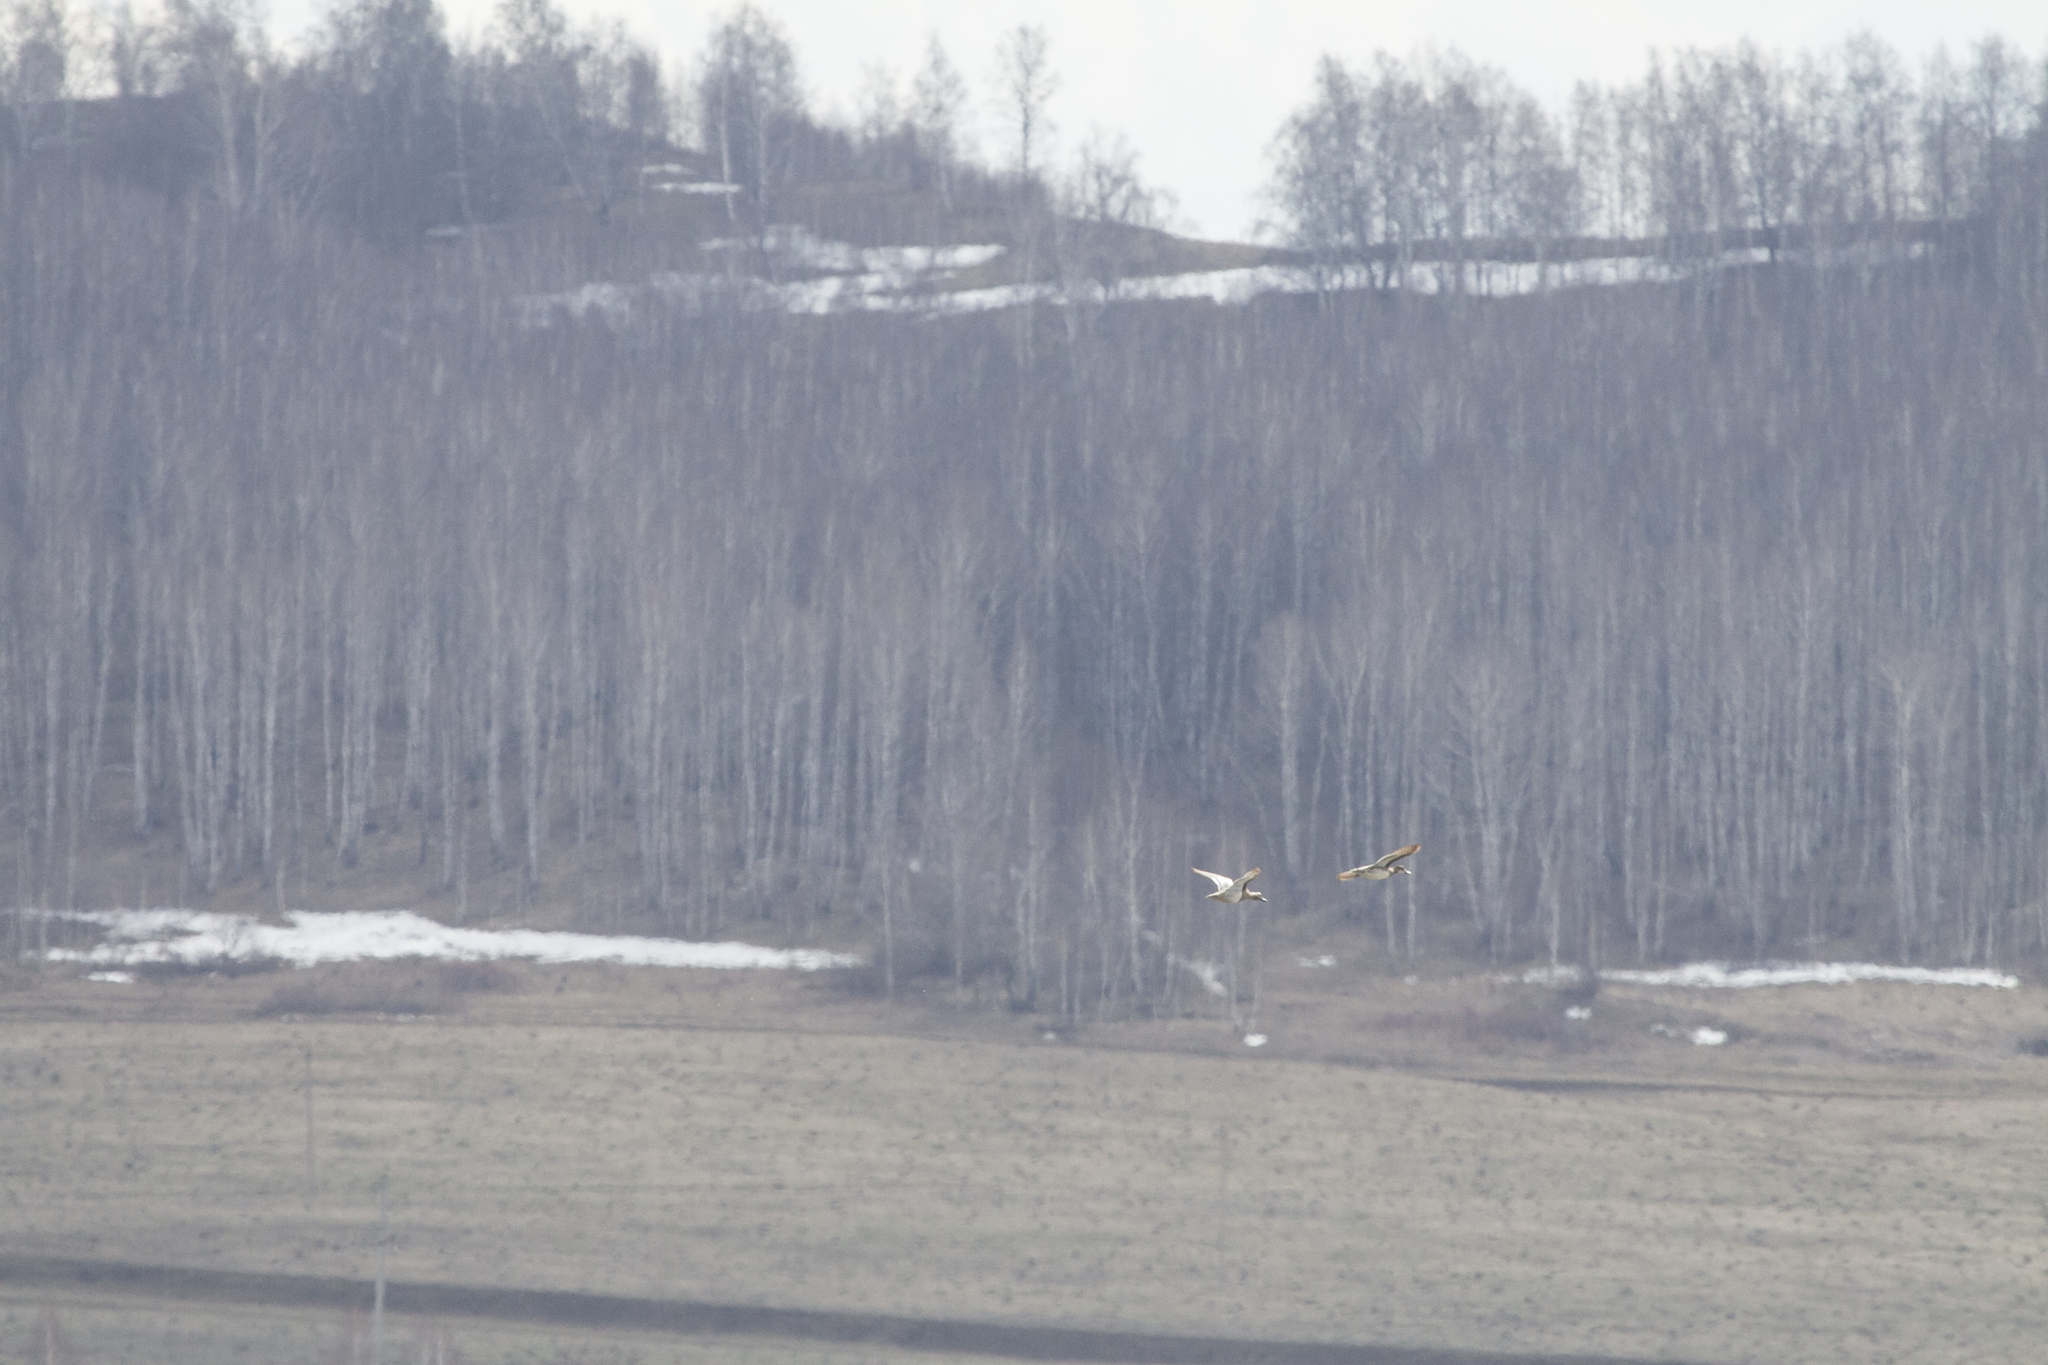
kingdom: Animalia
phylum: Chordata
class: Aves
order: Anseriformes
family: Anatidae
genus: Spatula
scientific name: Spatula querquedula
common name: Garganey
